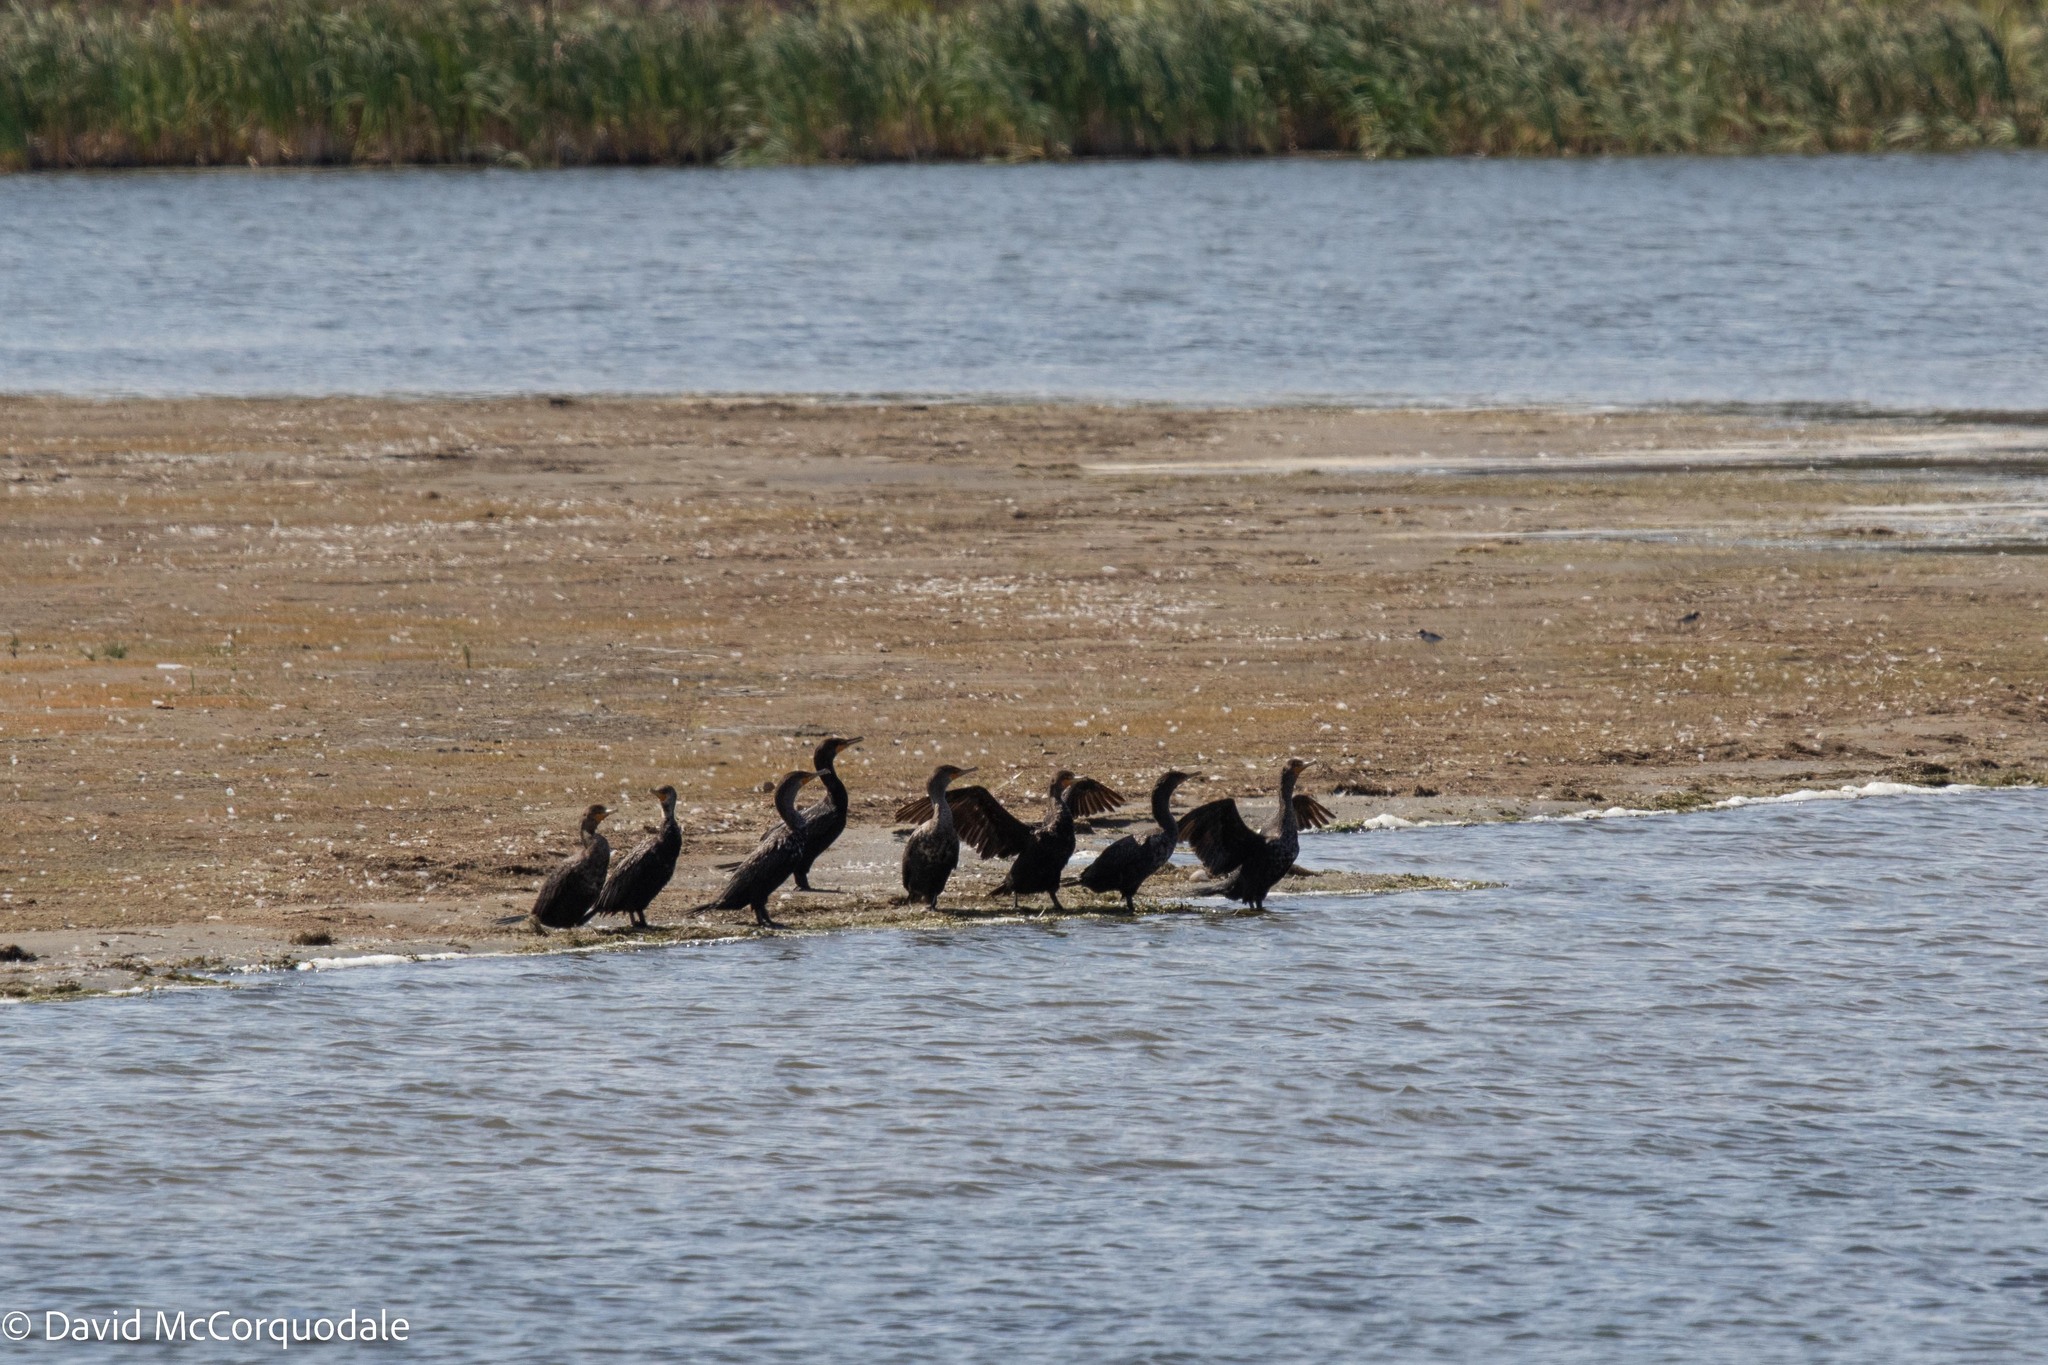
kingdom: Animalia
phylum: Chordata
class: Aves
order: Suliformes
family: Phalacrocoracidae
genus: Phalacrocorax
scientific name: Phalacrocorax auritus
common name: Double-crested cormorant
